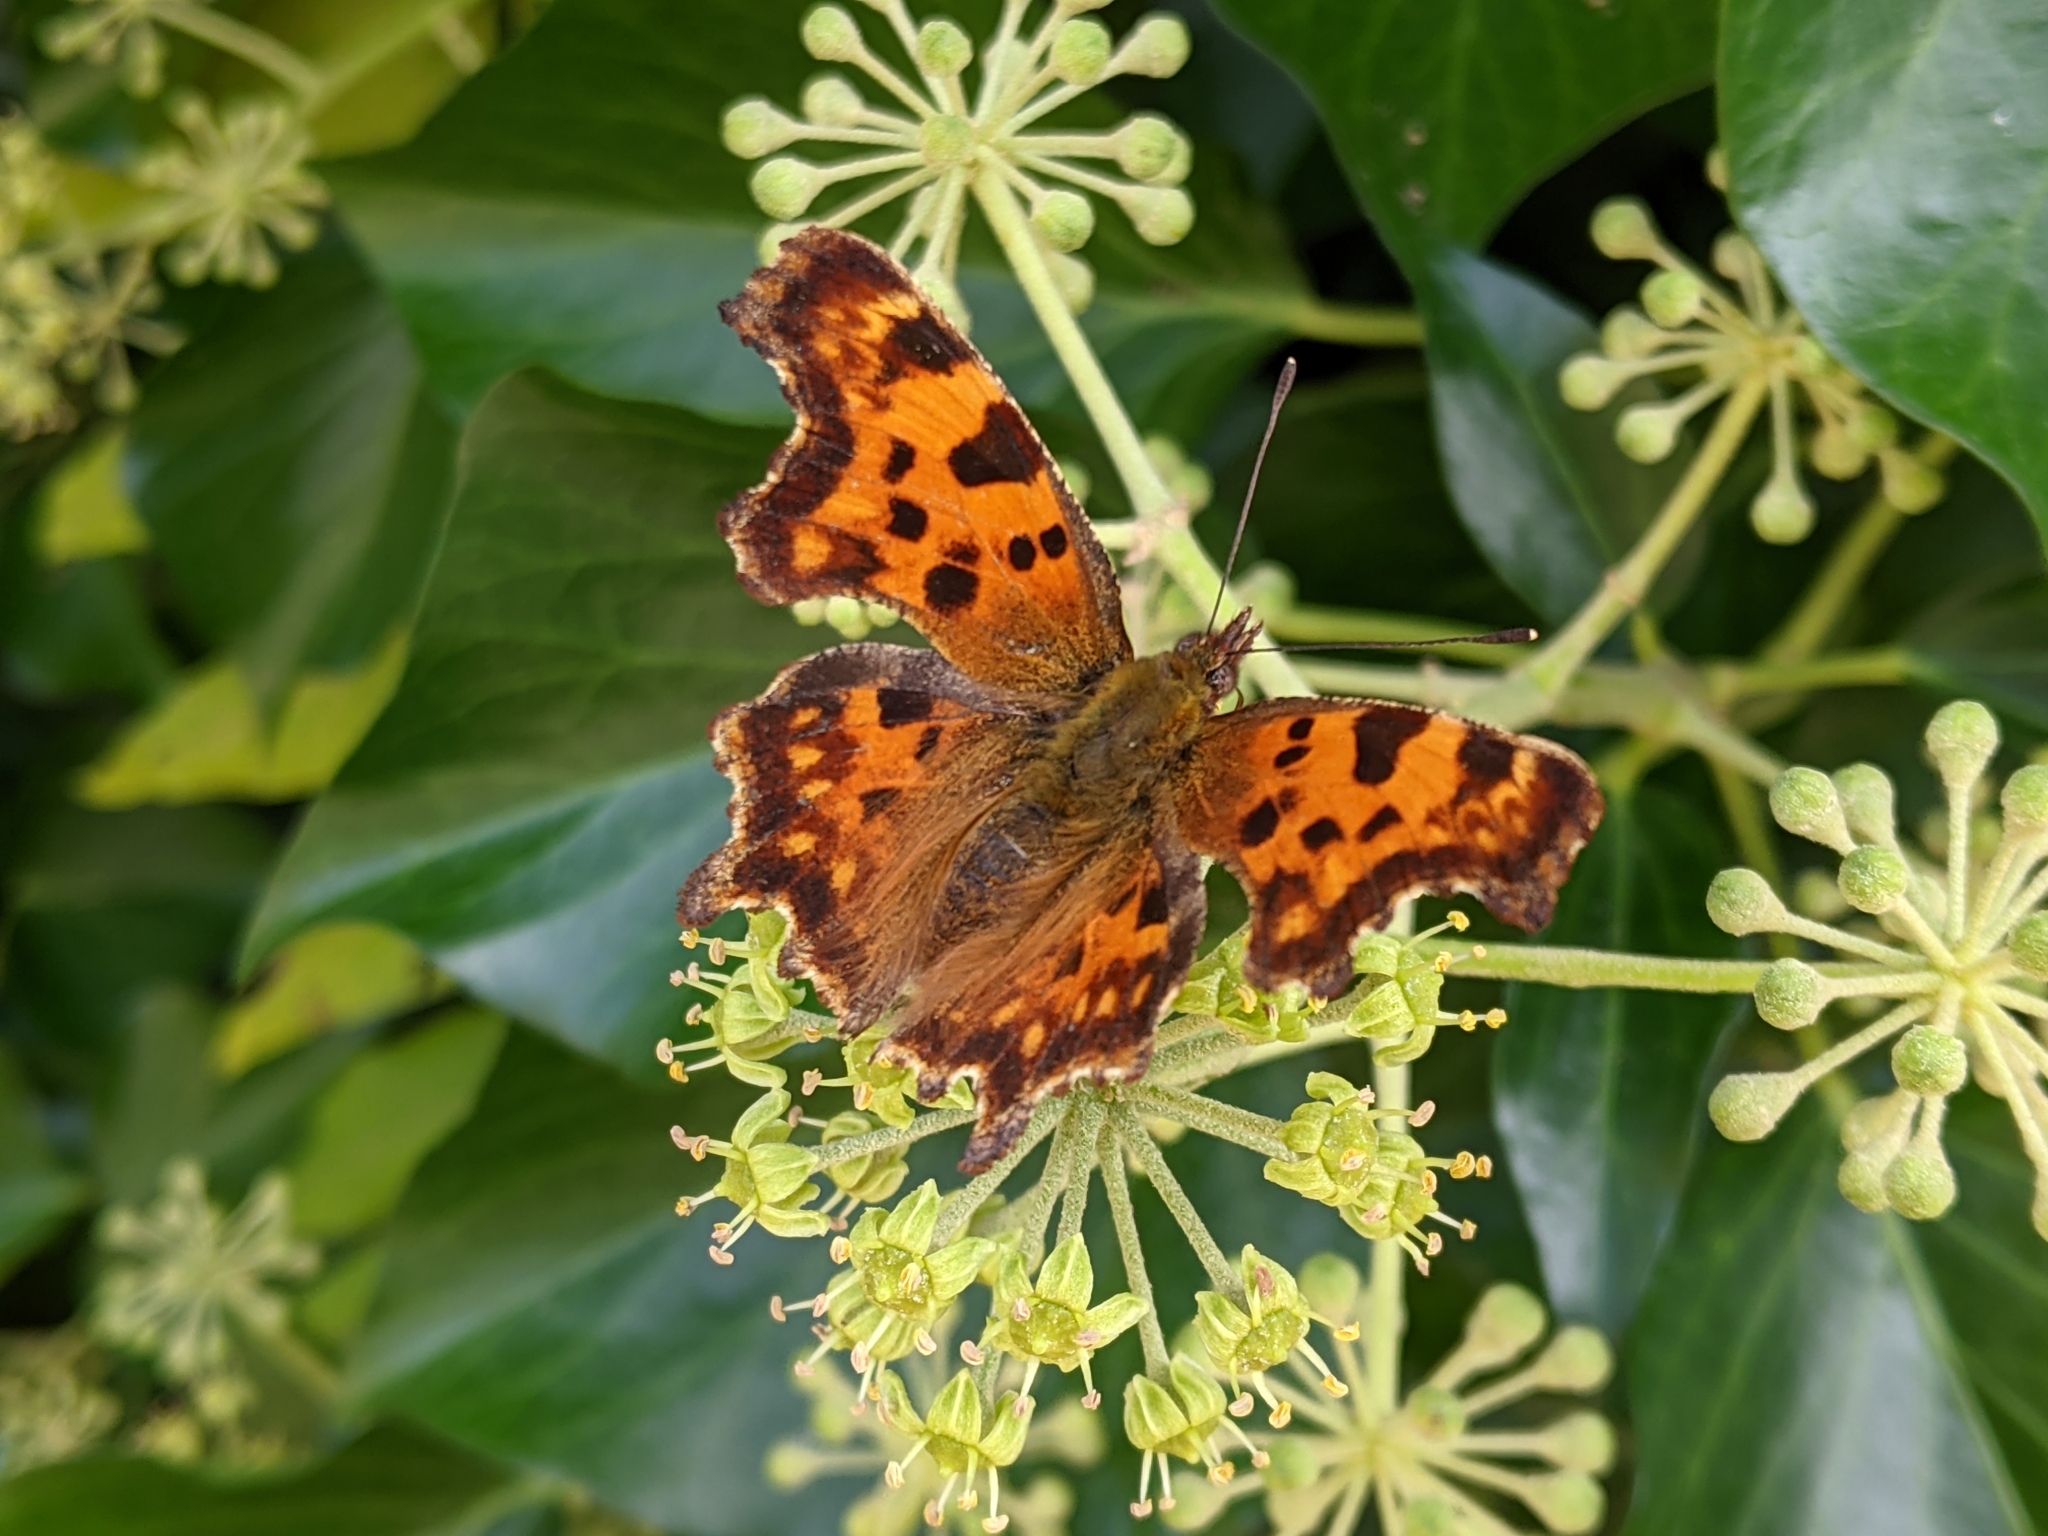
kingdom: Animalia
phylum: Arthropoda
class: Insecta
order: Lepidoptera
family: Nymphalidae
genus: Polygonia
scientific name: Polygonia c-album
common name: Comma
